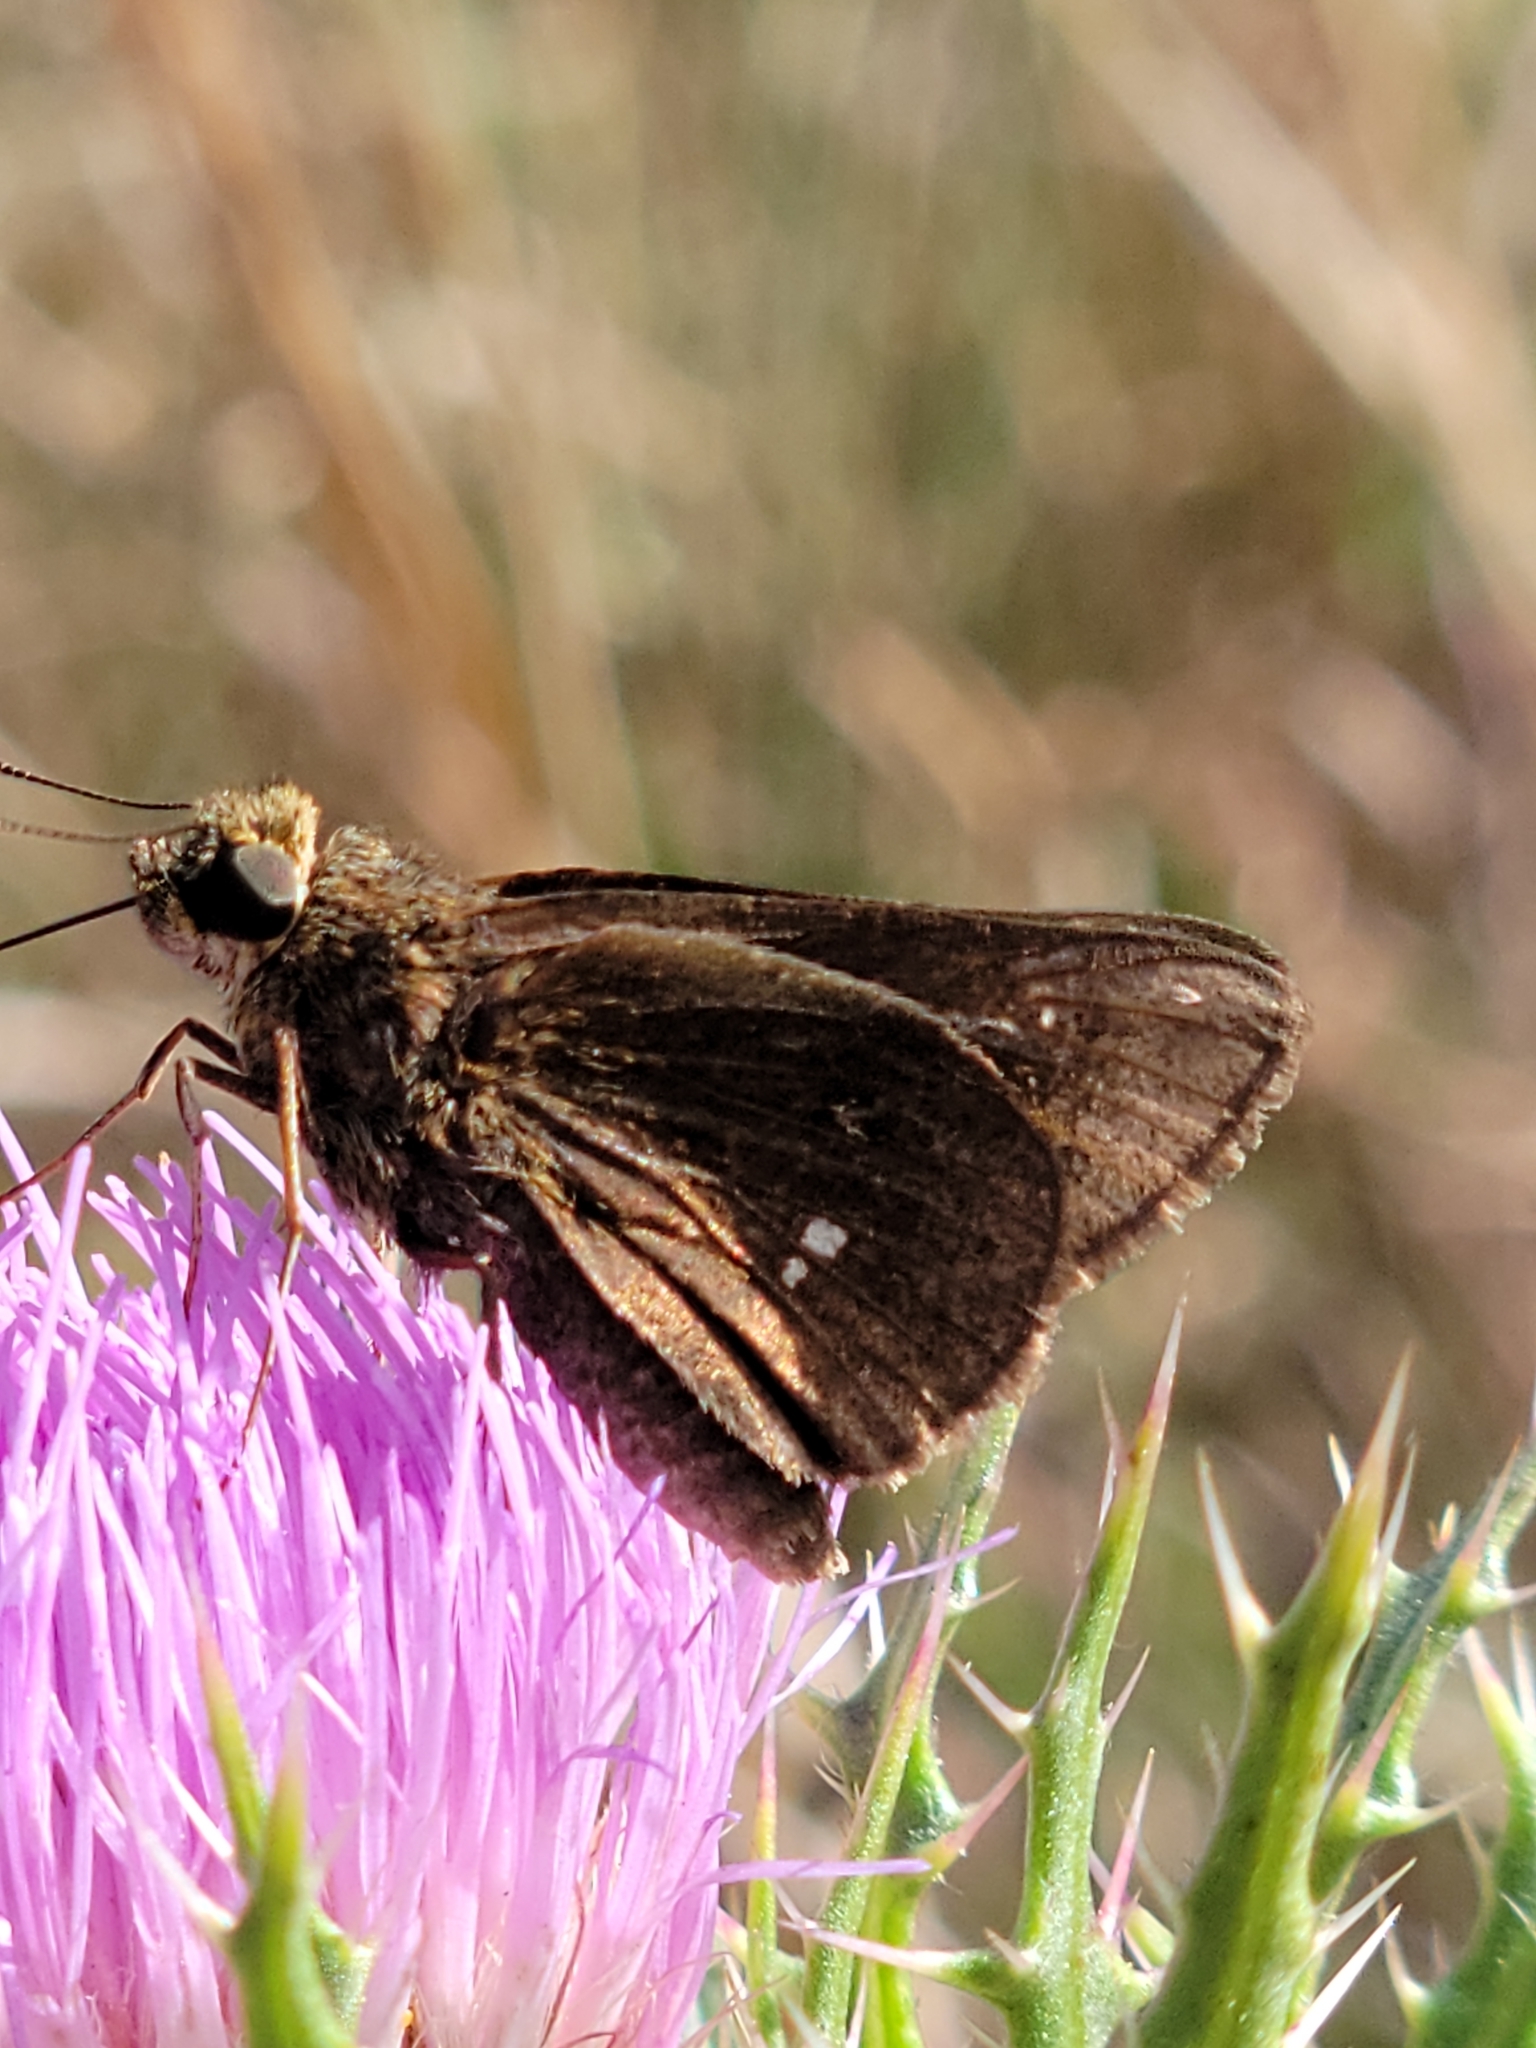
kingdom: Animalia
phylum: Arthropoda
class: Insecta
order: Lepidoptera
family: Hesperiidae
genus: Oligoria
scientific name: Oligoria maculata
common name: Twin-spot skipper
